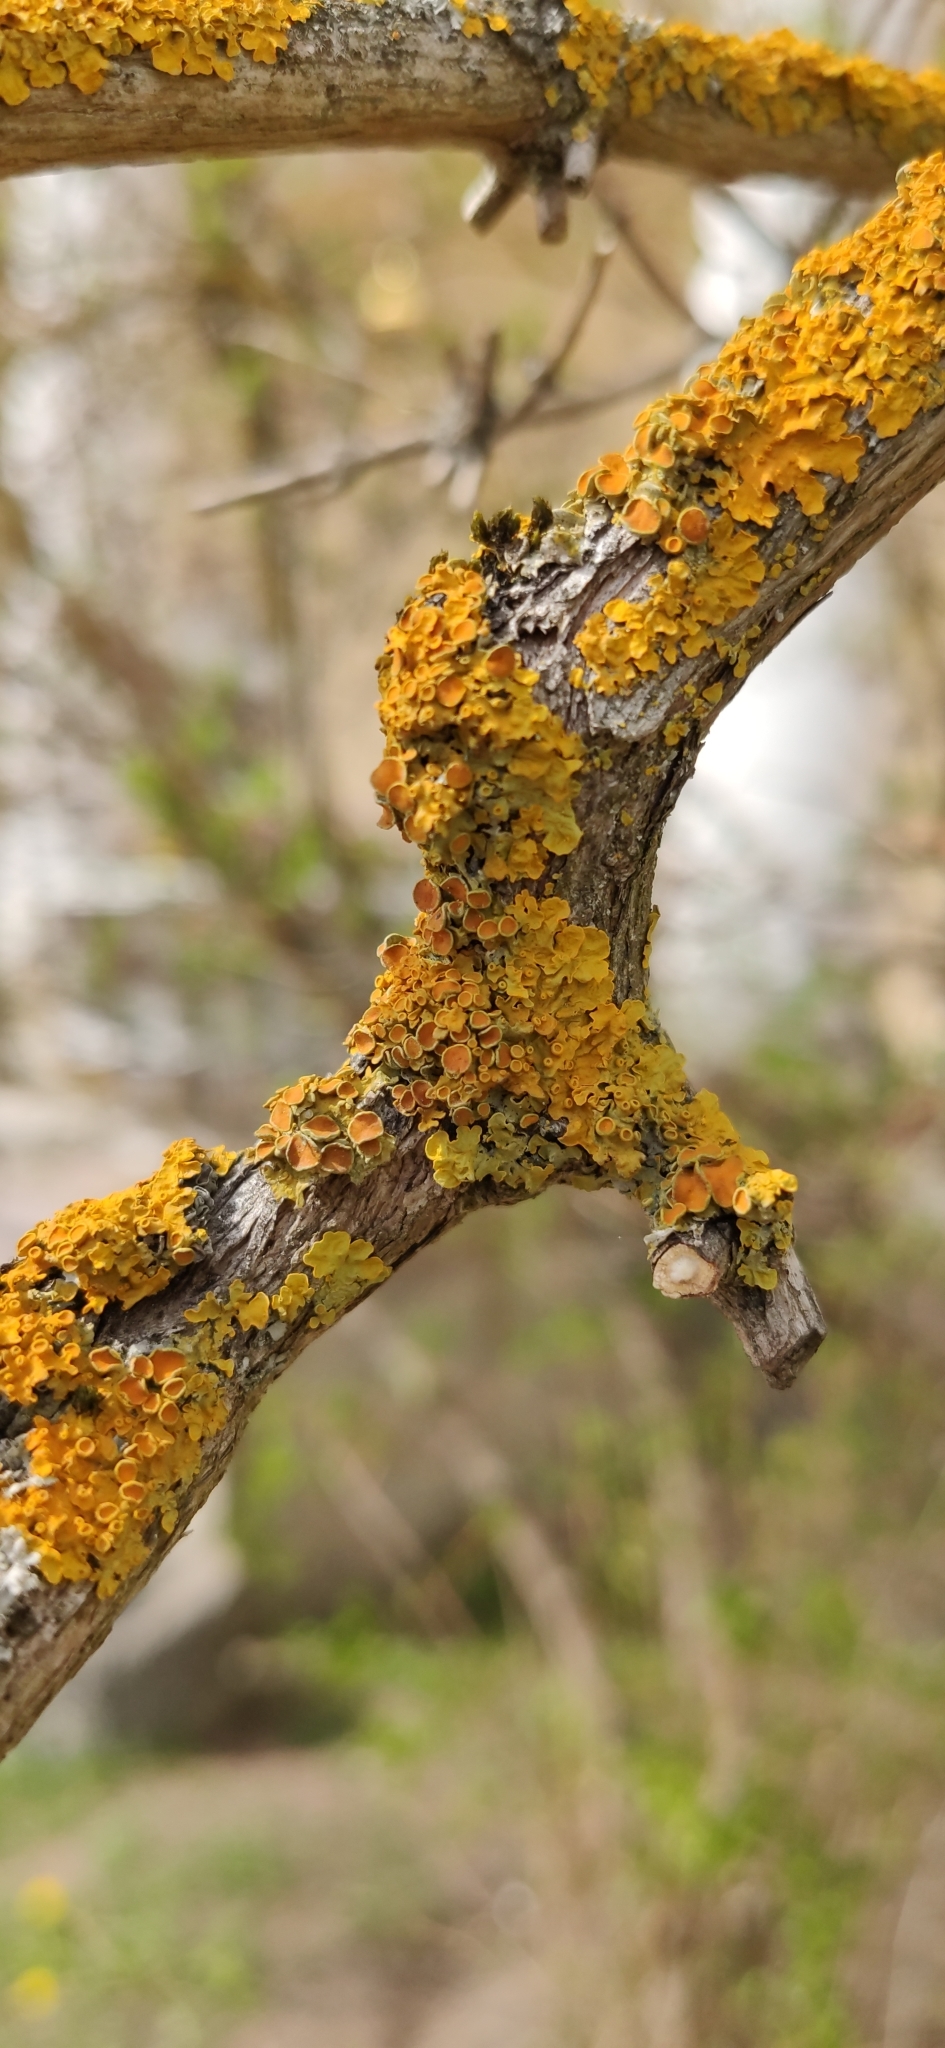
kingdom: Fungi
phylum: Ascomycota
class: Lecanoromycetes
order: Teloschistales
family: Teloschistaceae
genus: Xanthoria
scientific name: Xanthoria parietina
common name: Common orange lichen
